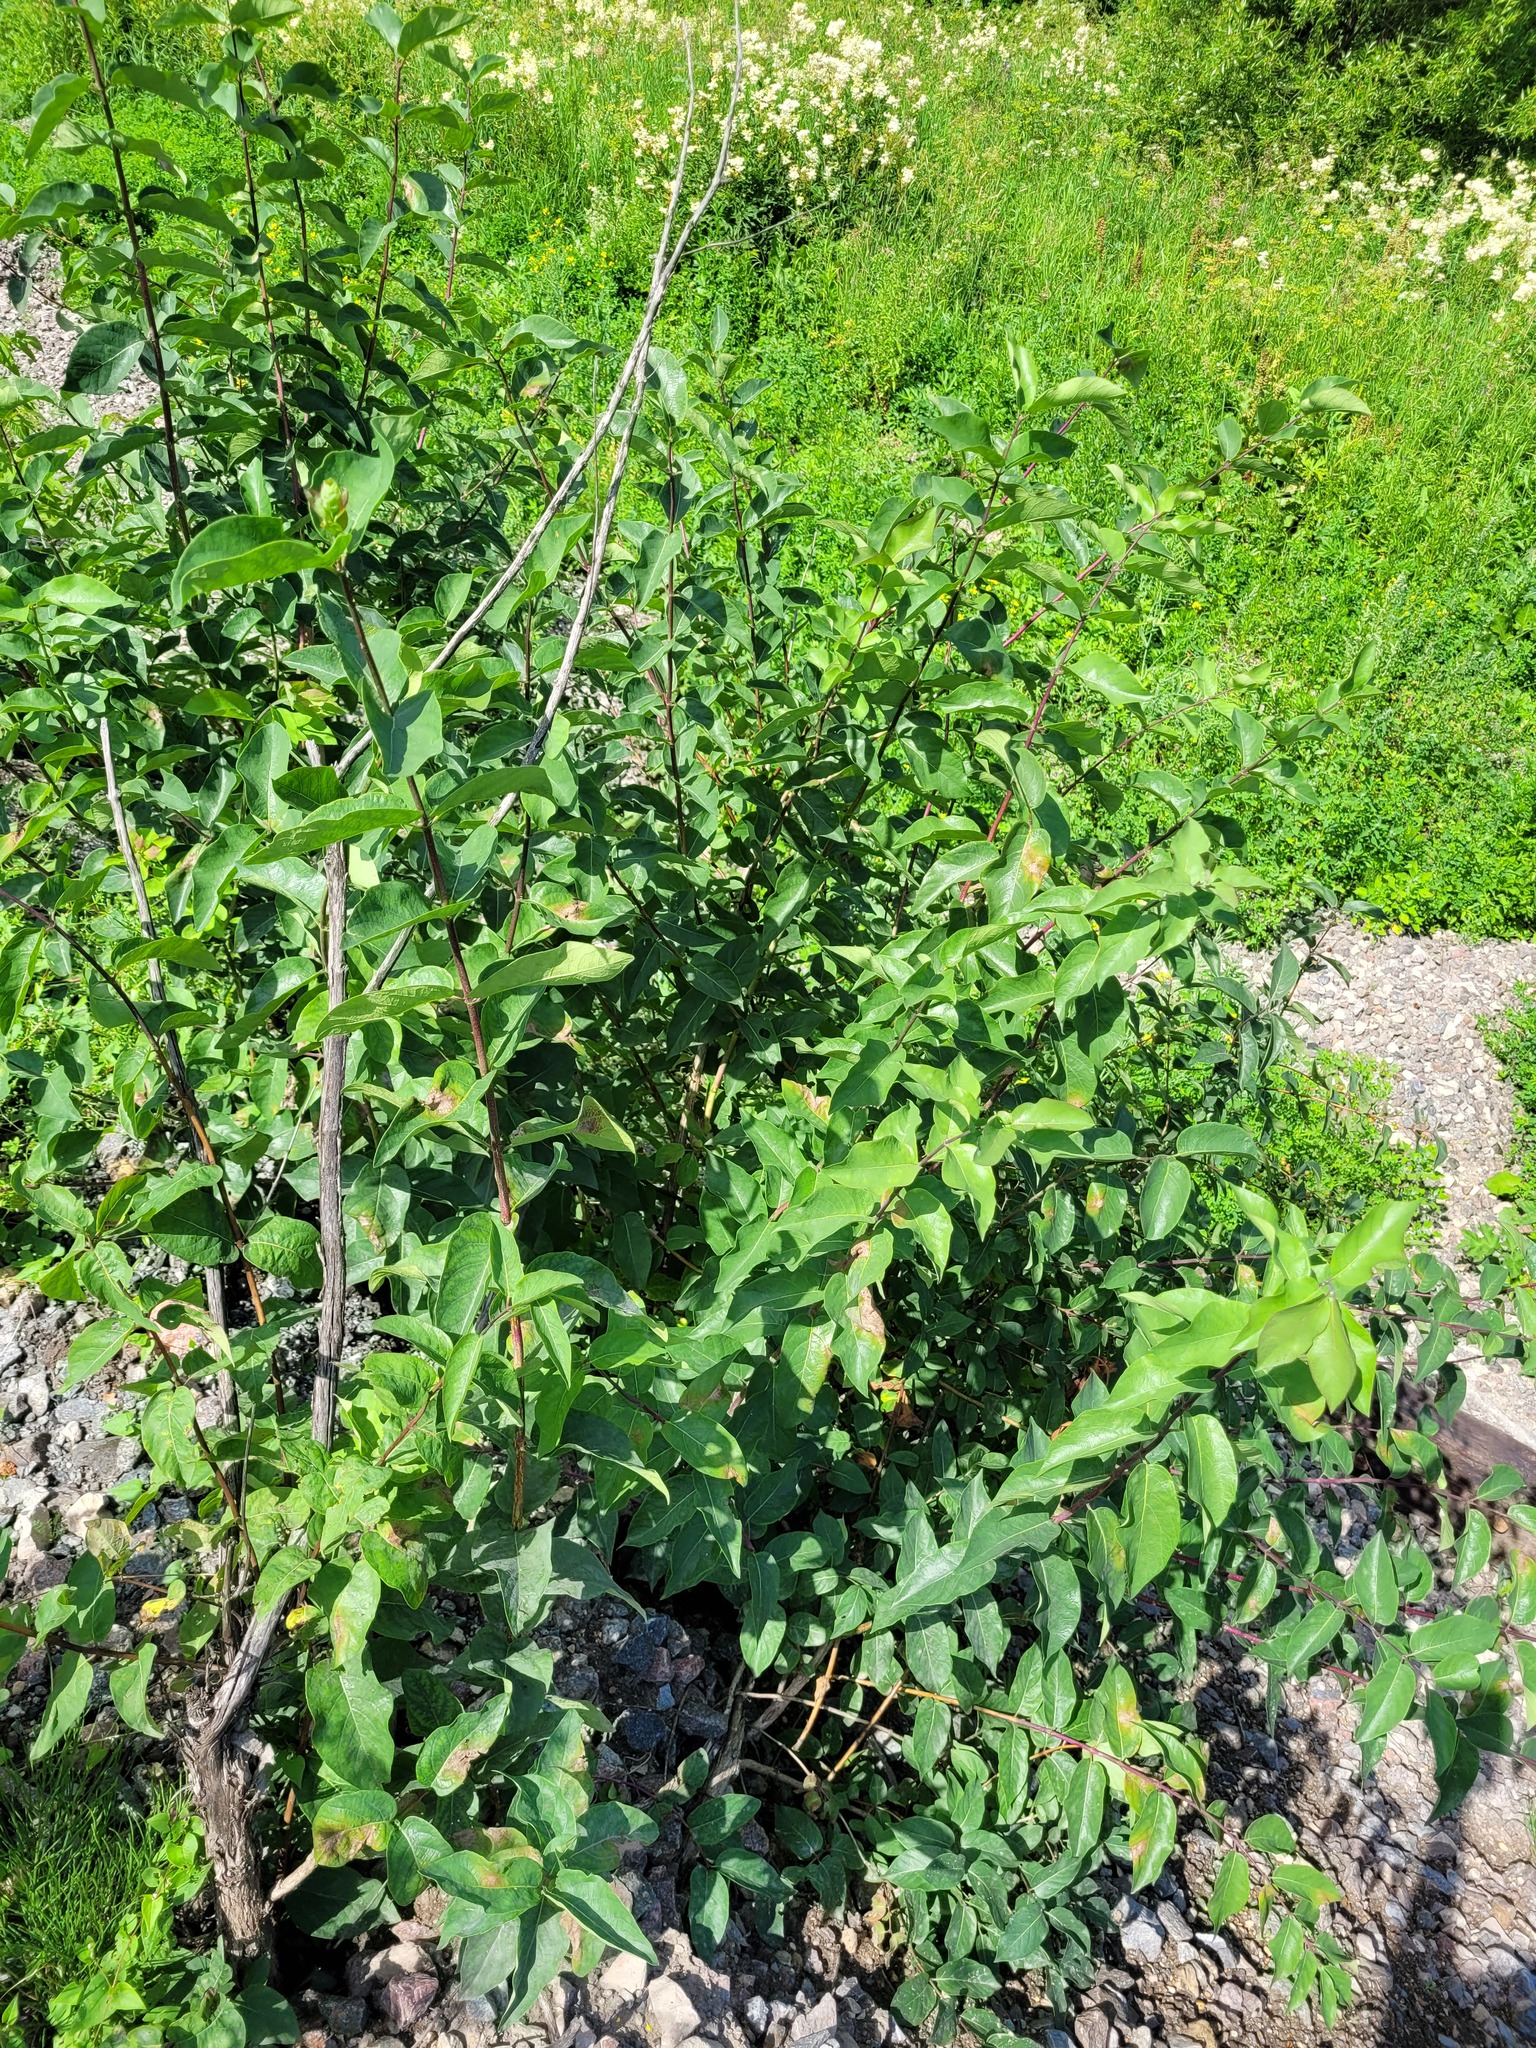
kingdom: Plantae
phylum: Tracheophyta
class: Magnoliopsida
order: Dipsacales
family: Caprifoliaceae
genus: Lonicera
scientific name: Lonicera tatarica
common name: Tatarian honeysuckle
